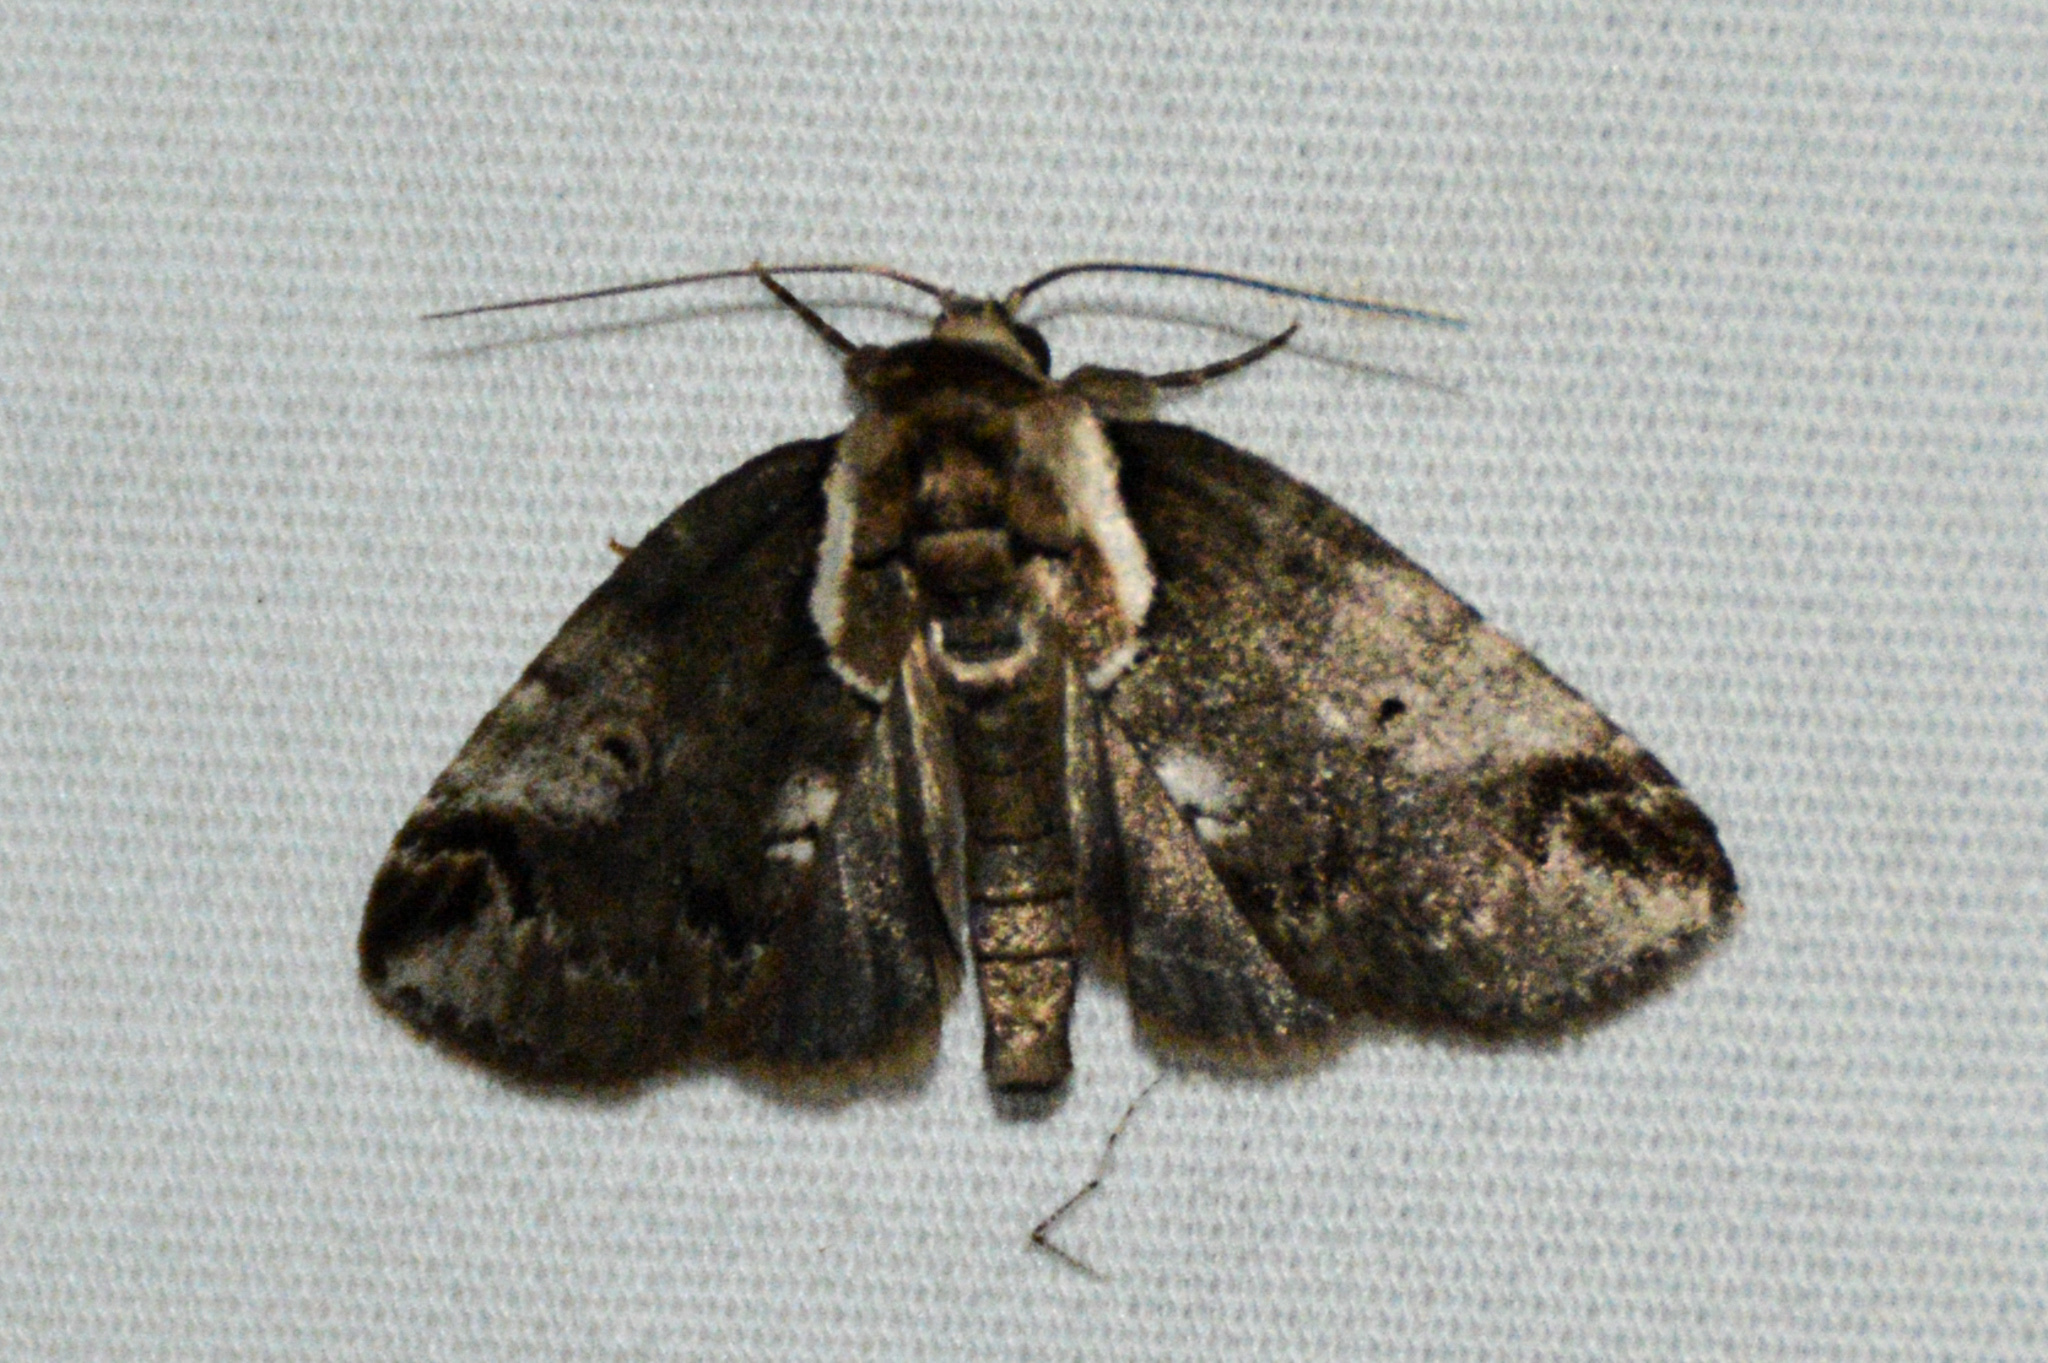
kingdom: Animalia
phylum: Arthropoda
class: Insecta
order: Lepidoptera
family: Nolidae
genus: Baileya
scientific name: Baileya ophthalmica
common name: Eyed baileya moth
